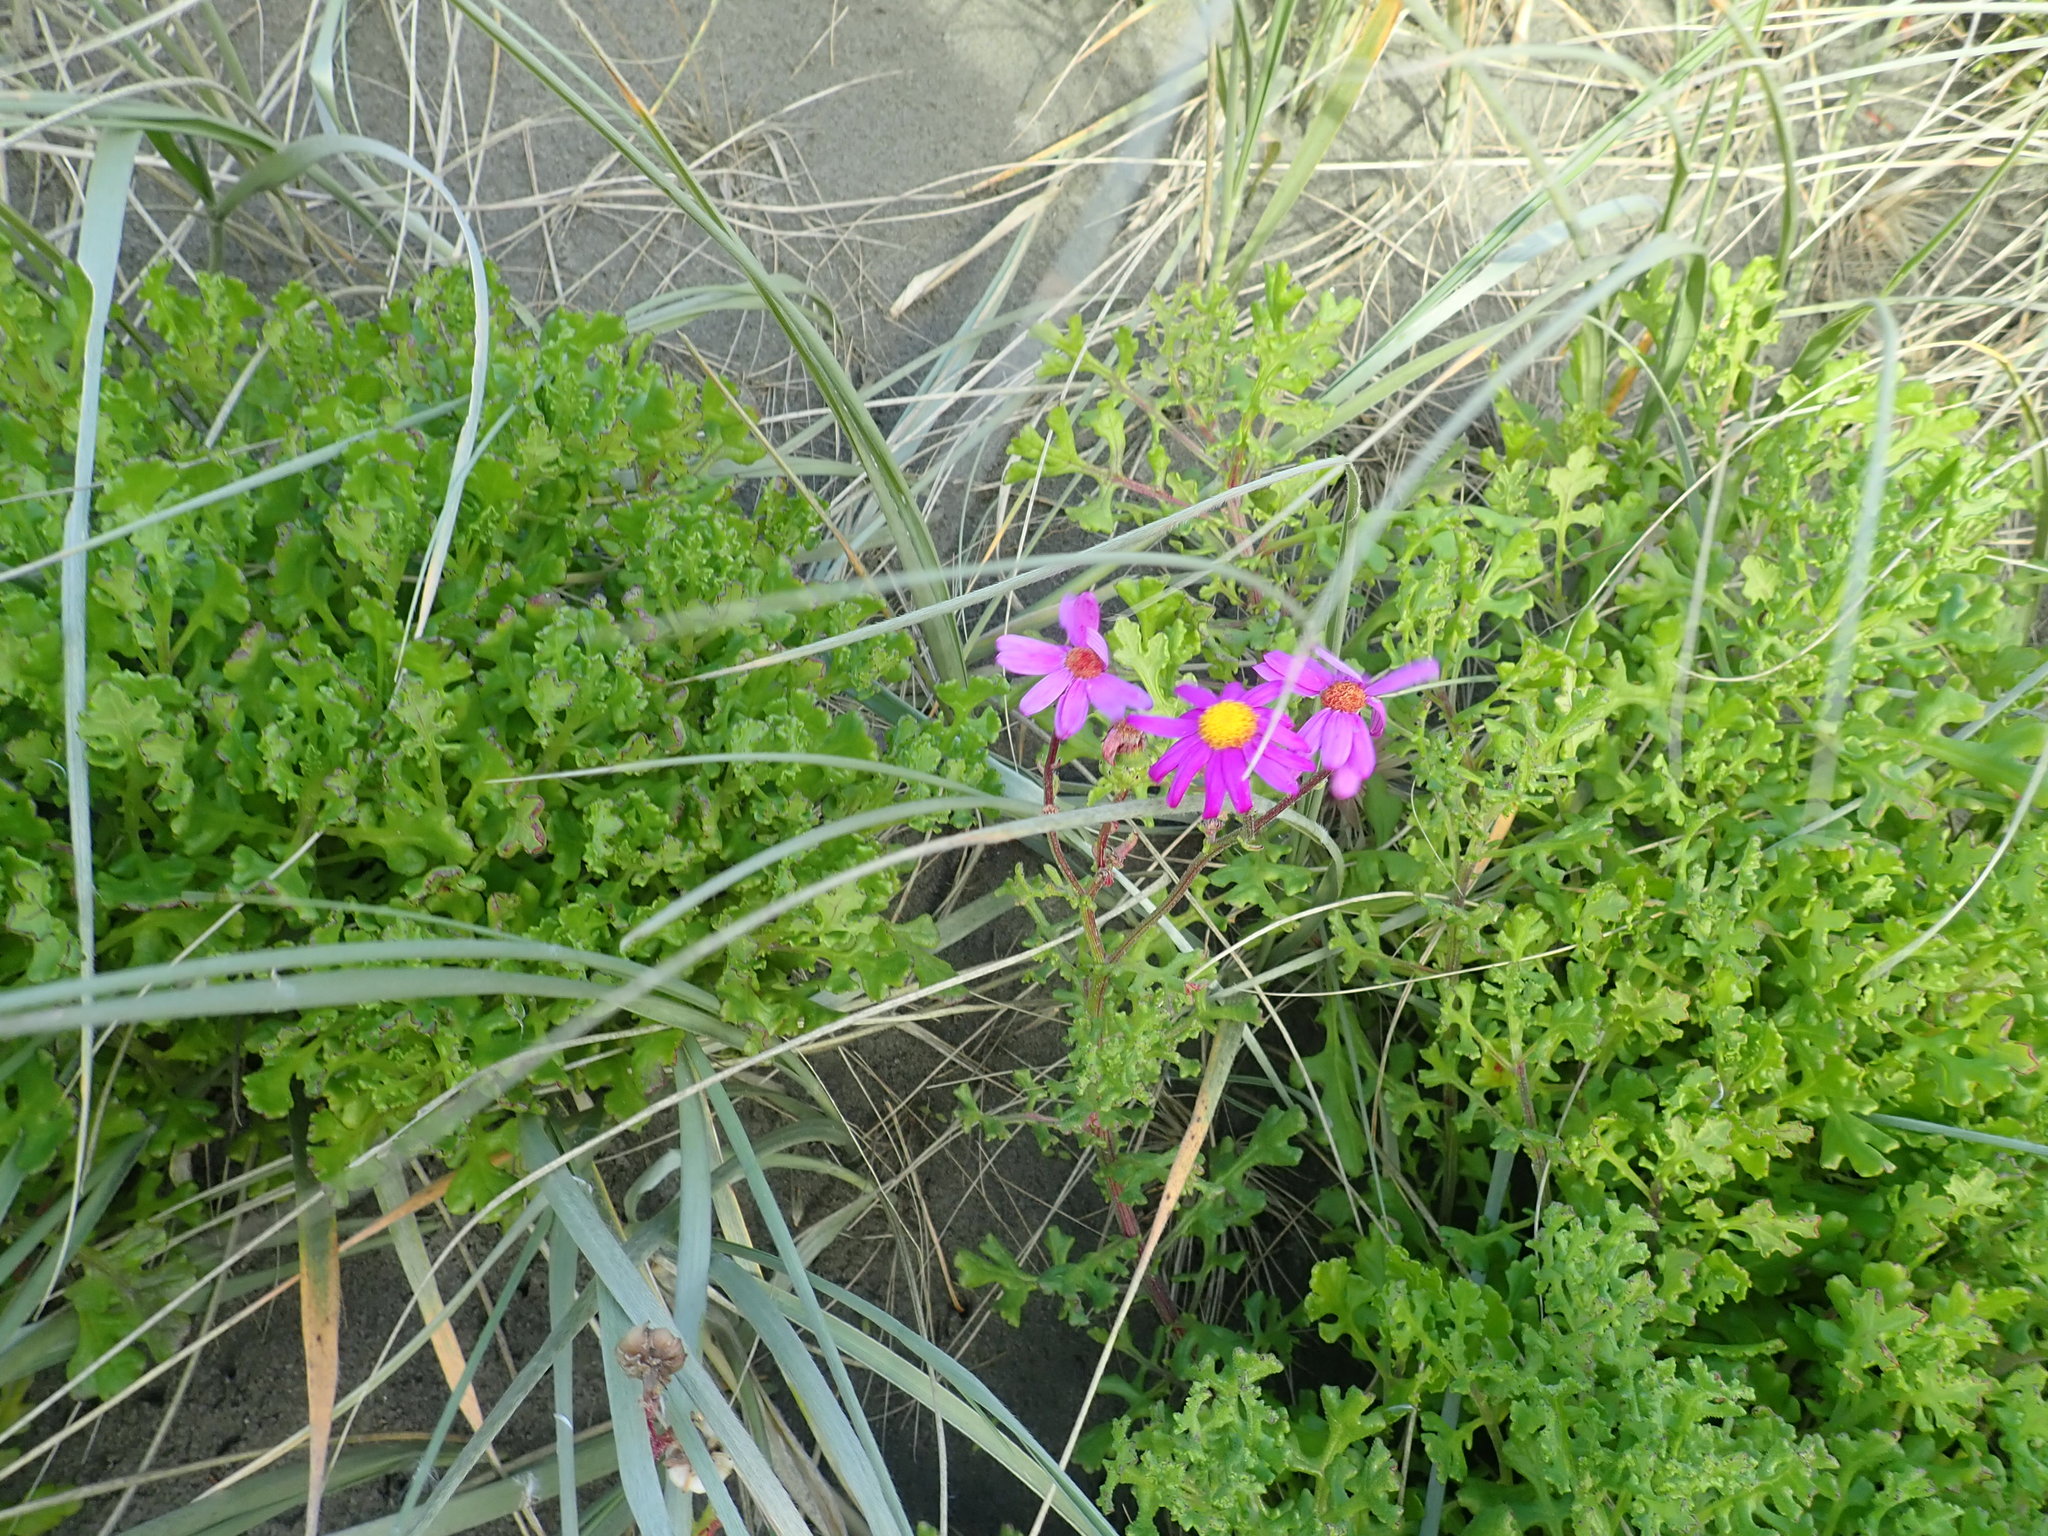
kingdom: Plantae
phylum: Tracheophyta
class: Magnoliopsida
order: Asterales
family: Asteraceae
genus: Senecio
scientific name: Senecio elegans
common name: Purple groundsel
